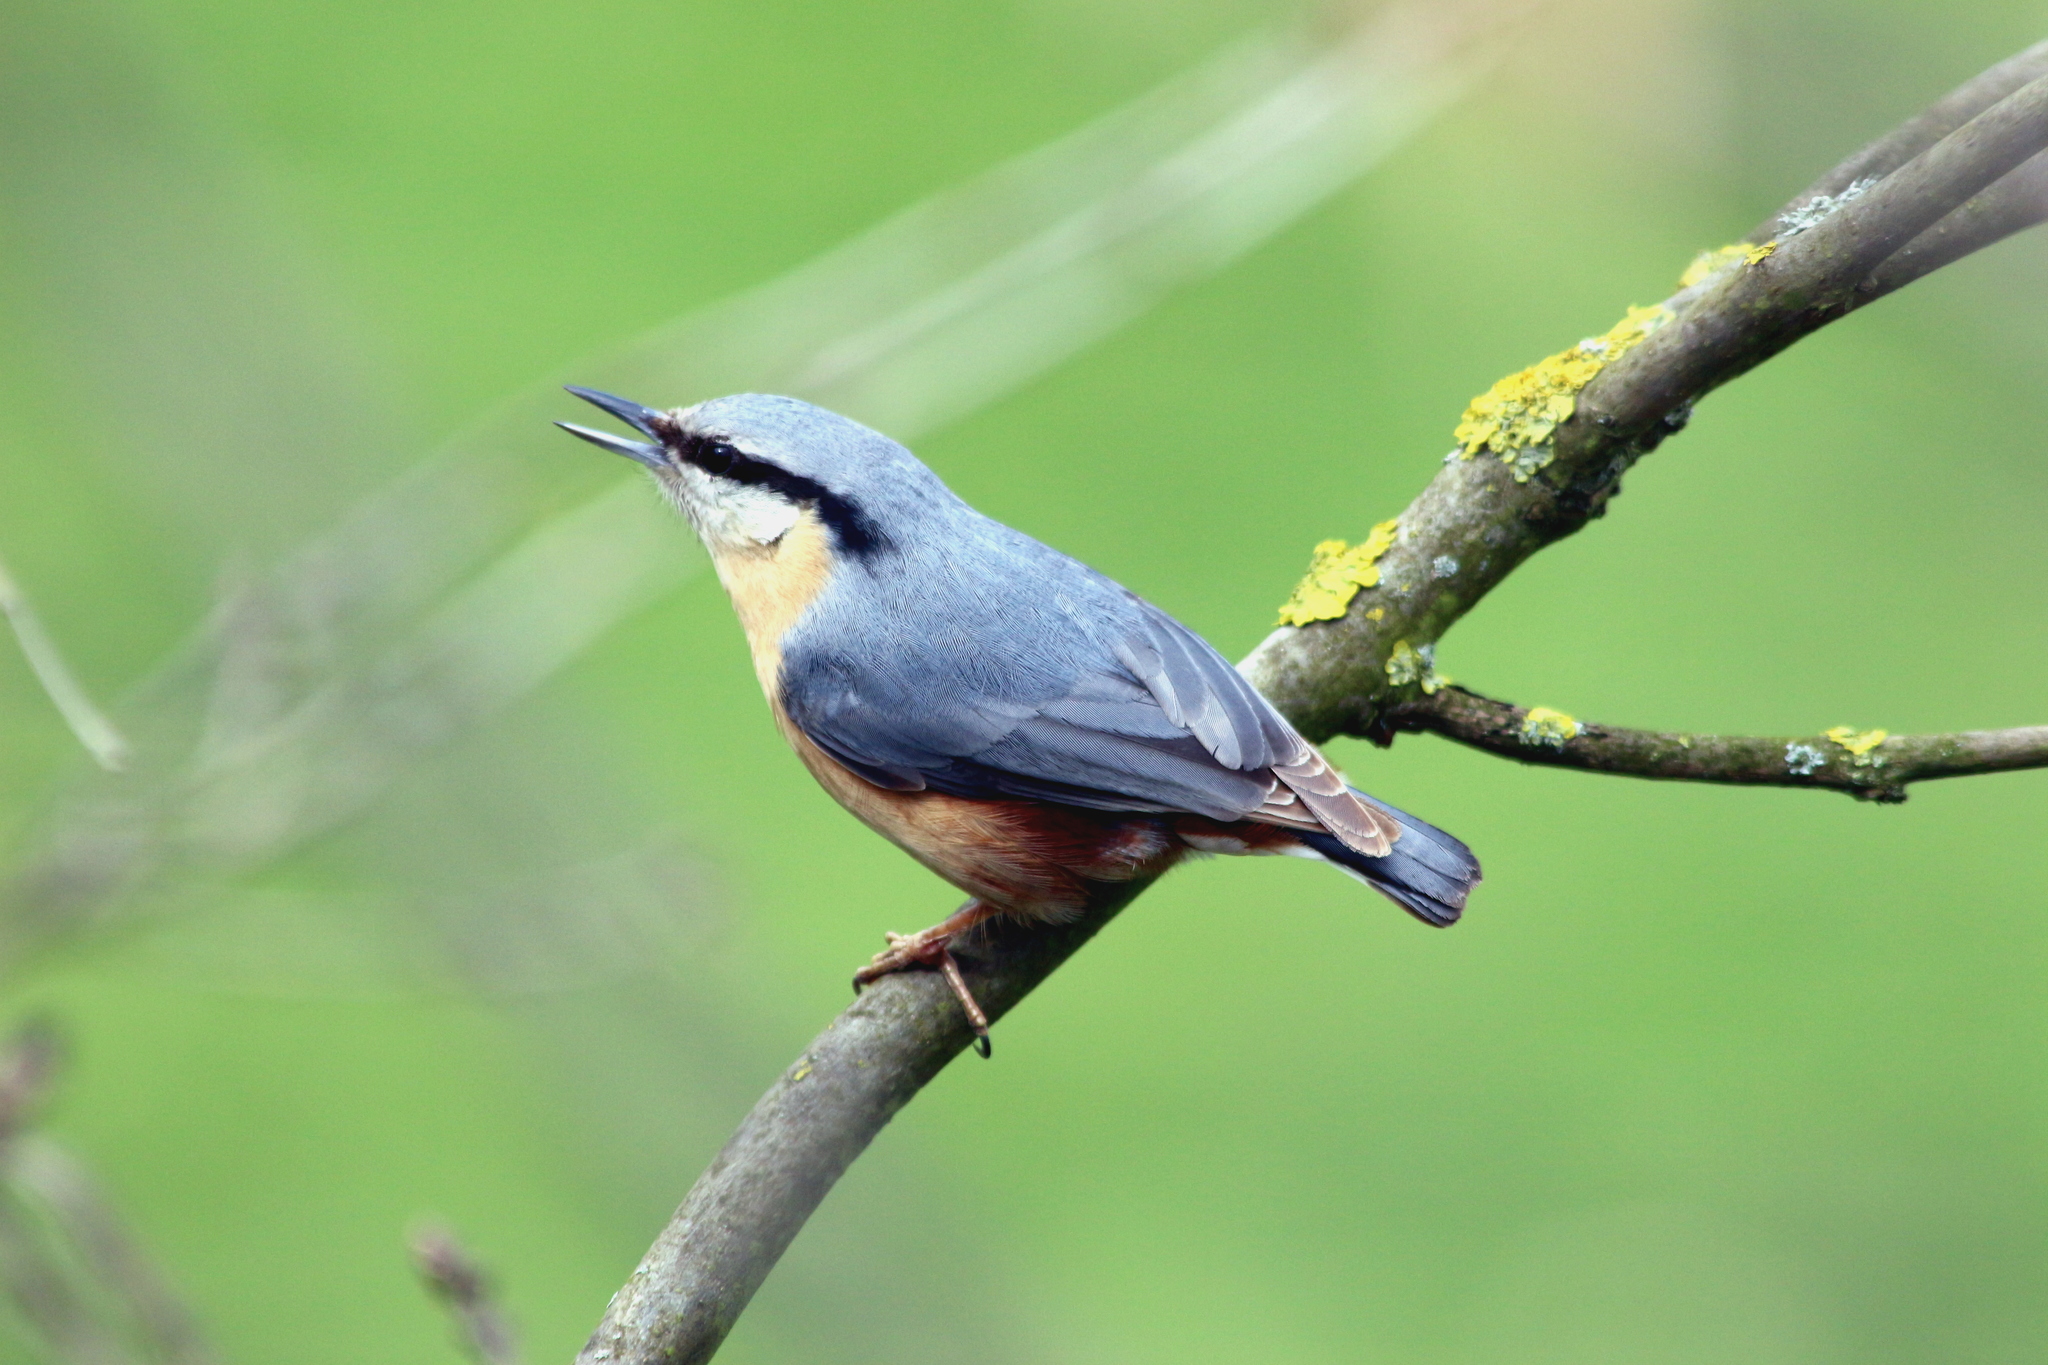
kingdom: Animalia
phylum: Chordata
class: Aves
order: Passeriformes
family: Sittidae
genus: Sitta
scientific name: Sitta europaea
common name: Eurasian nuthatch
